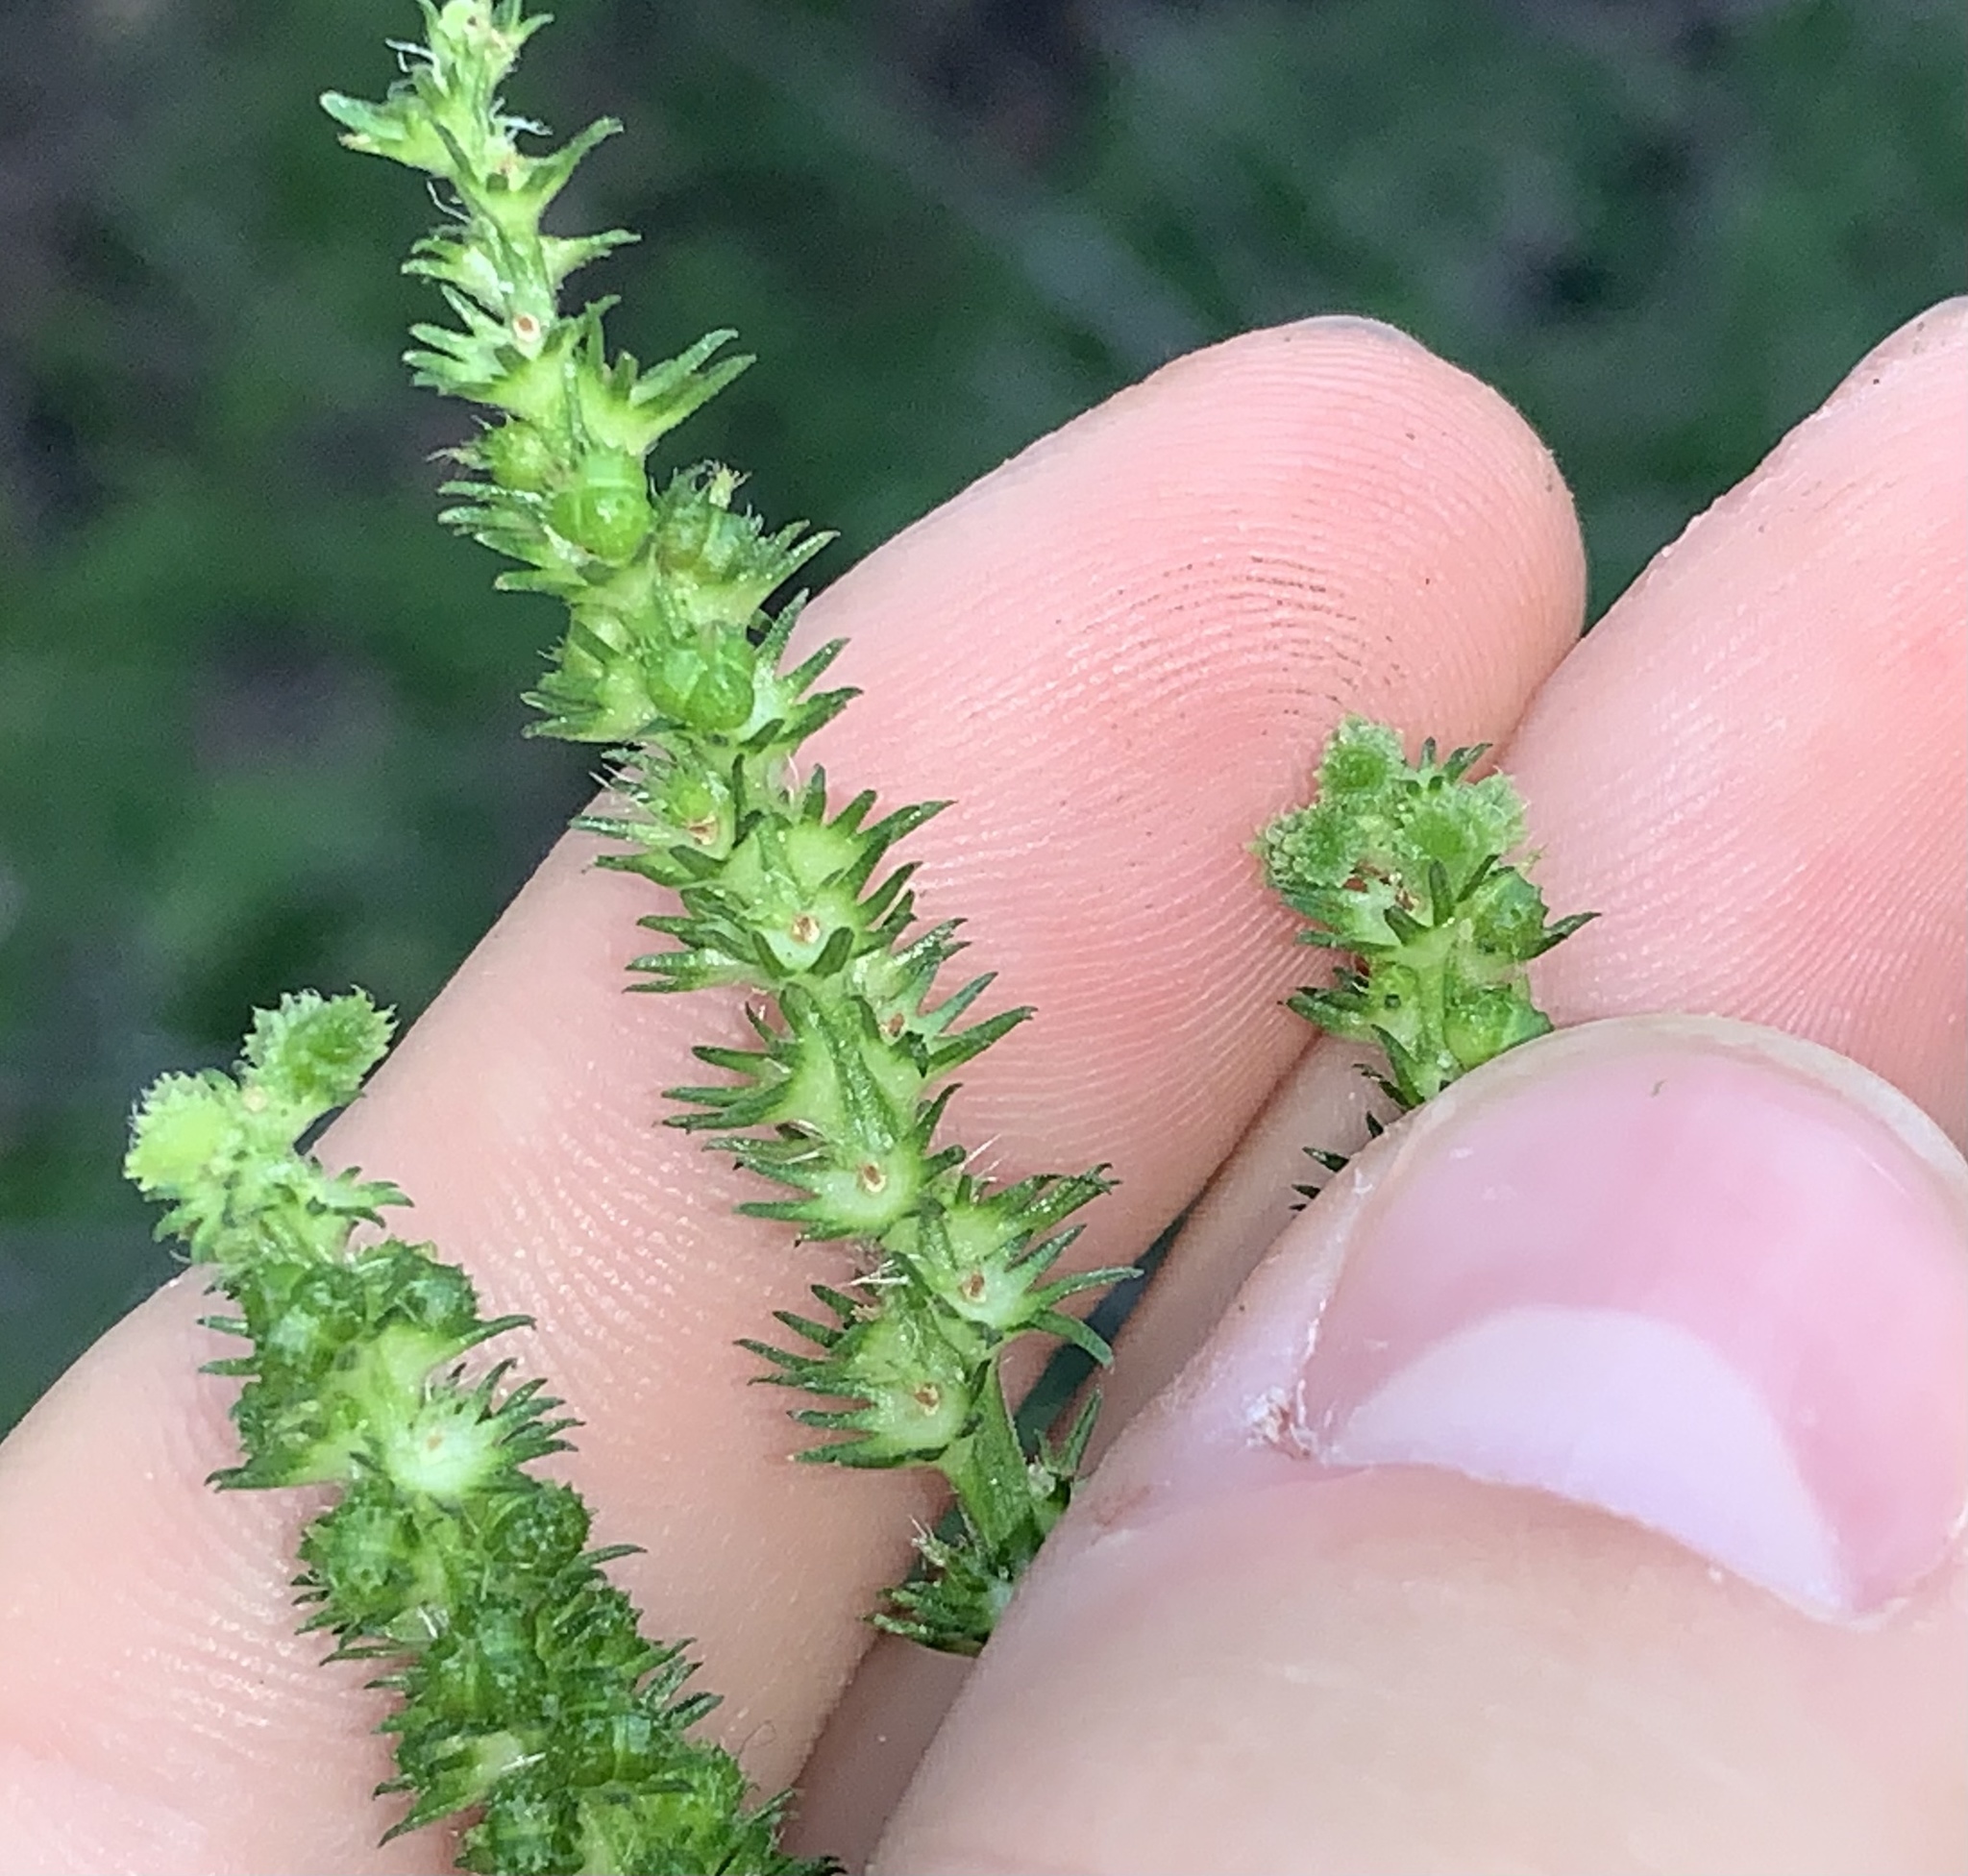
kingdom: Plantae
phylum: Tracheophyta
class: Magnoliopsida
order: Malpighiales
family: Euphorbiaceae
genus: Acalypha
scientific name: Acalypha setosa
